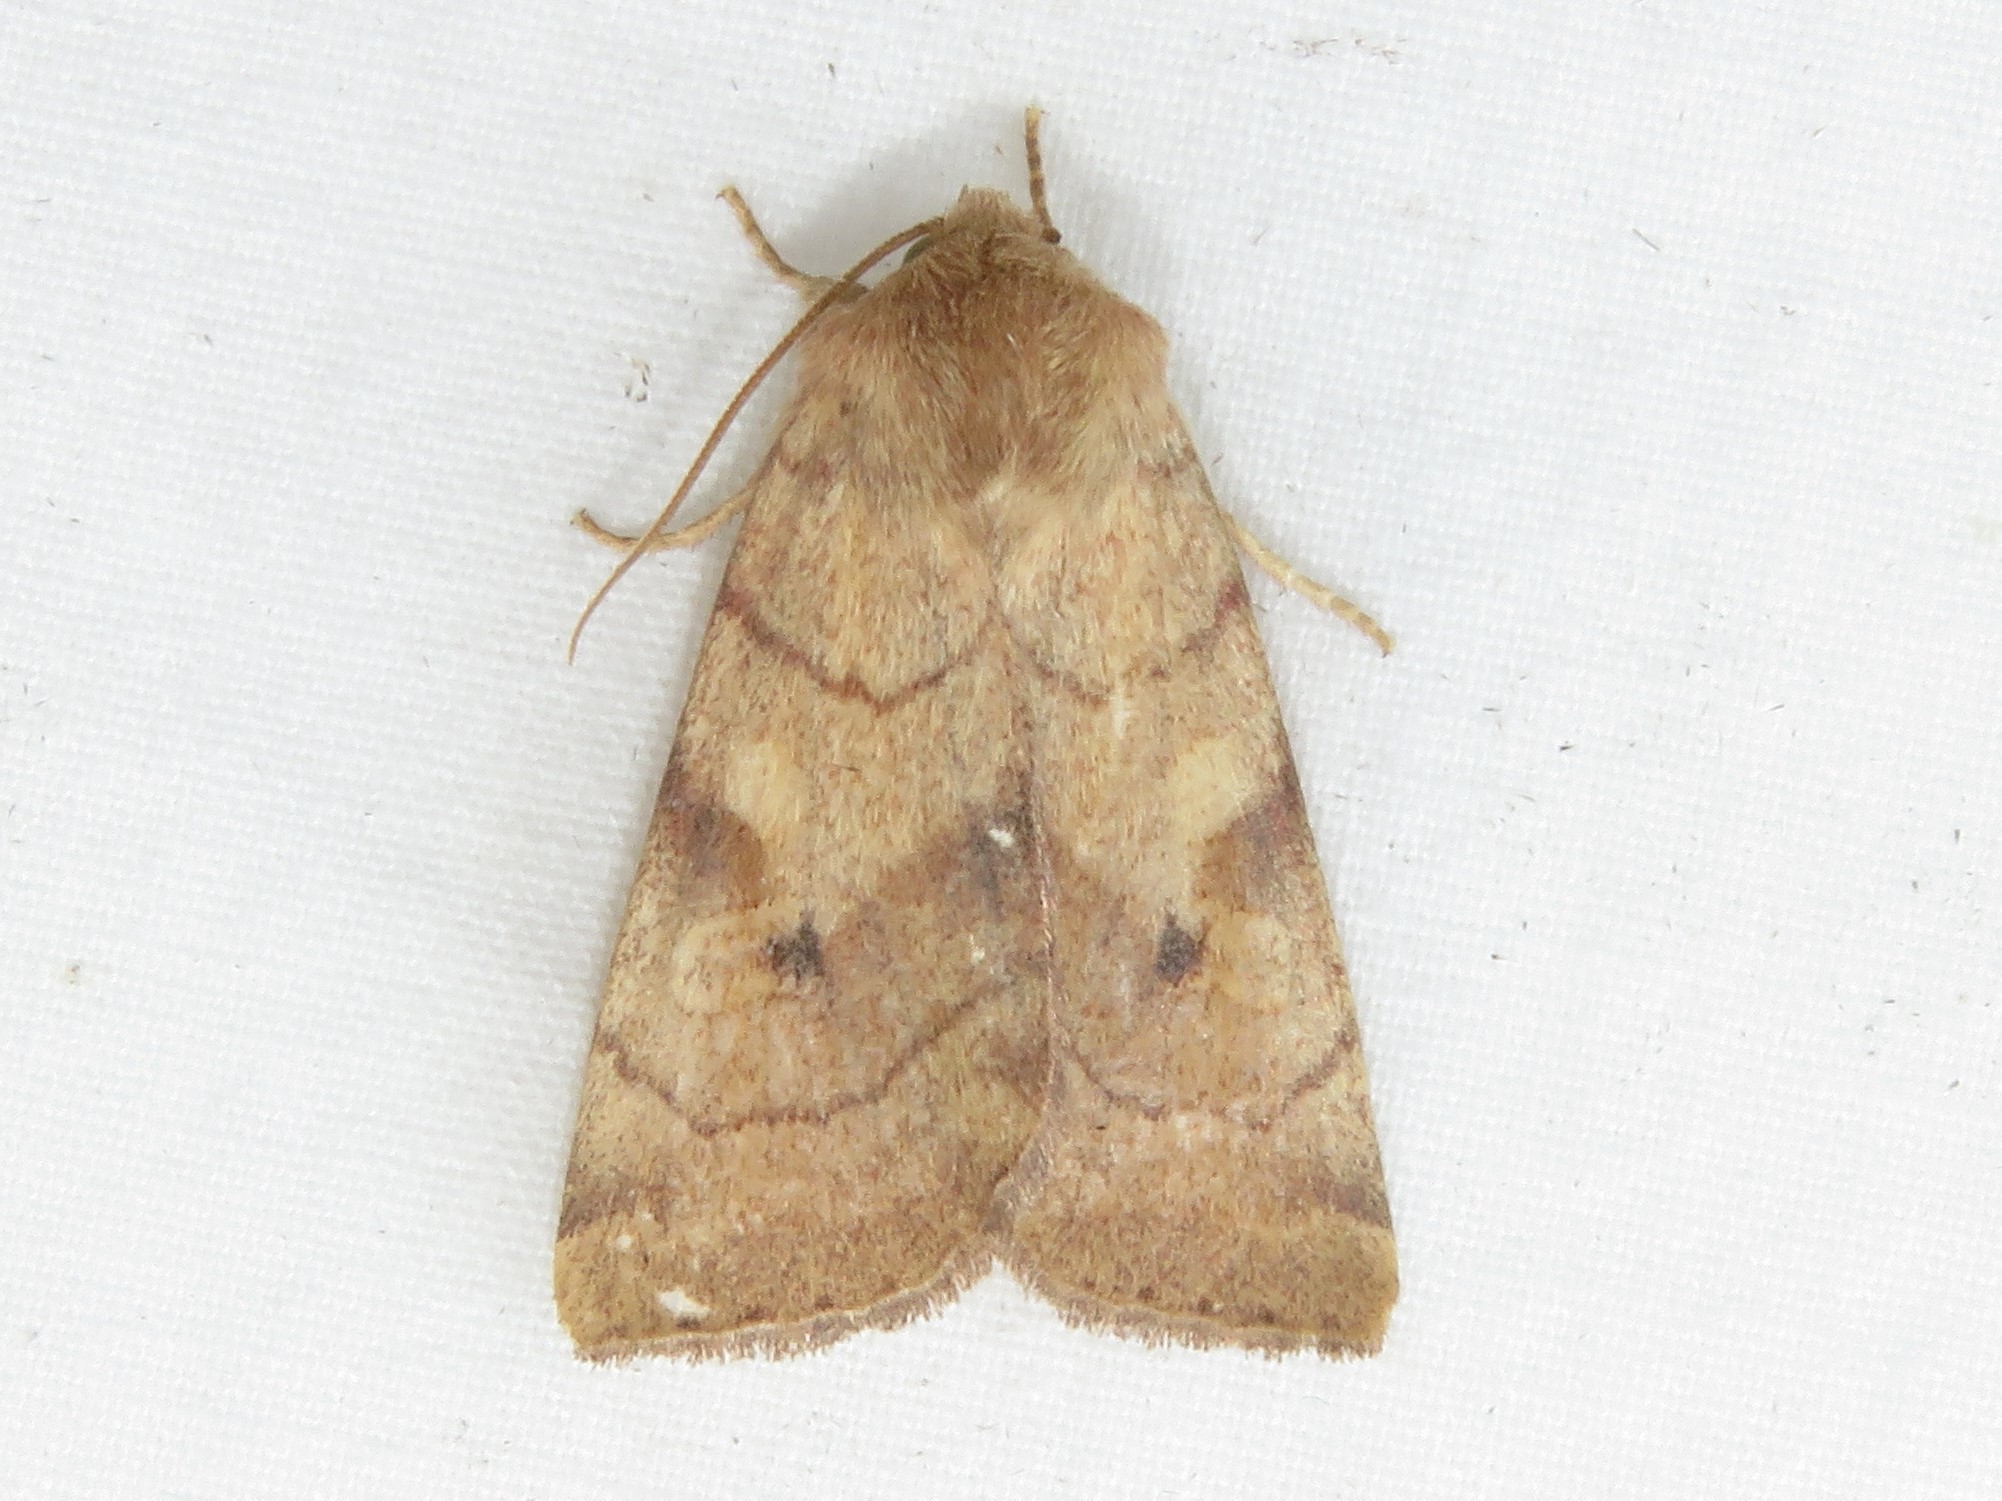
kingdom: Animalia
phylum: Arthropoda
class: Insecta
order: Lepidoptera
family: Noctuidae
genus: Enargia
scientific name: Enargia infumata
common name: Smoked sallow
